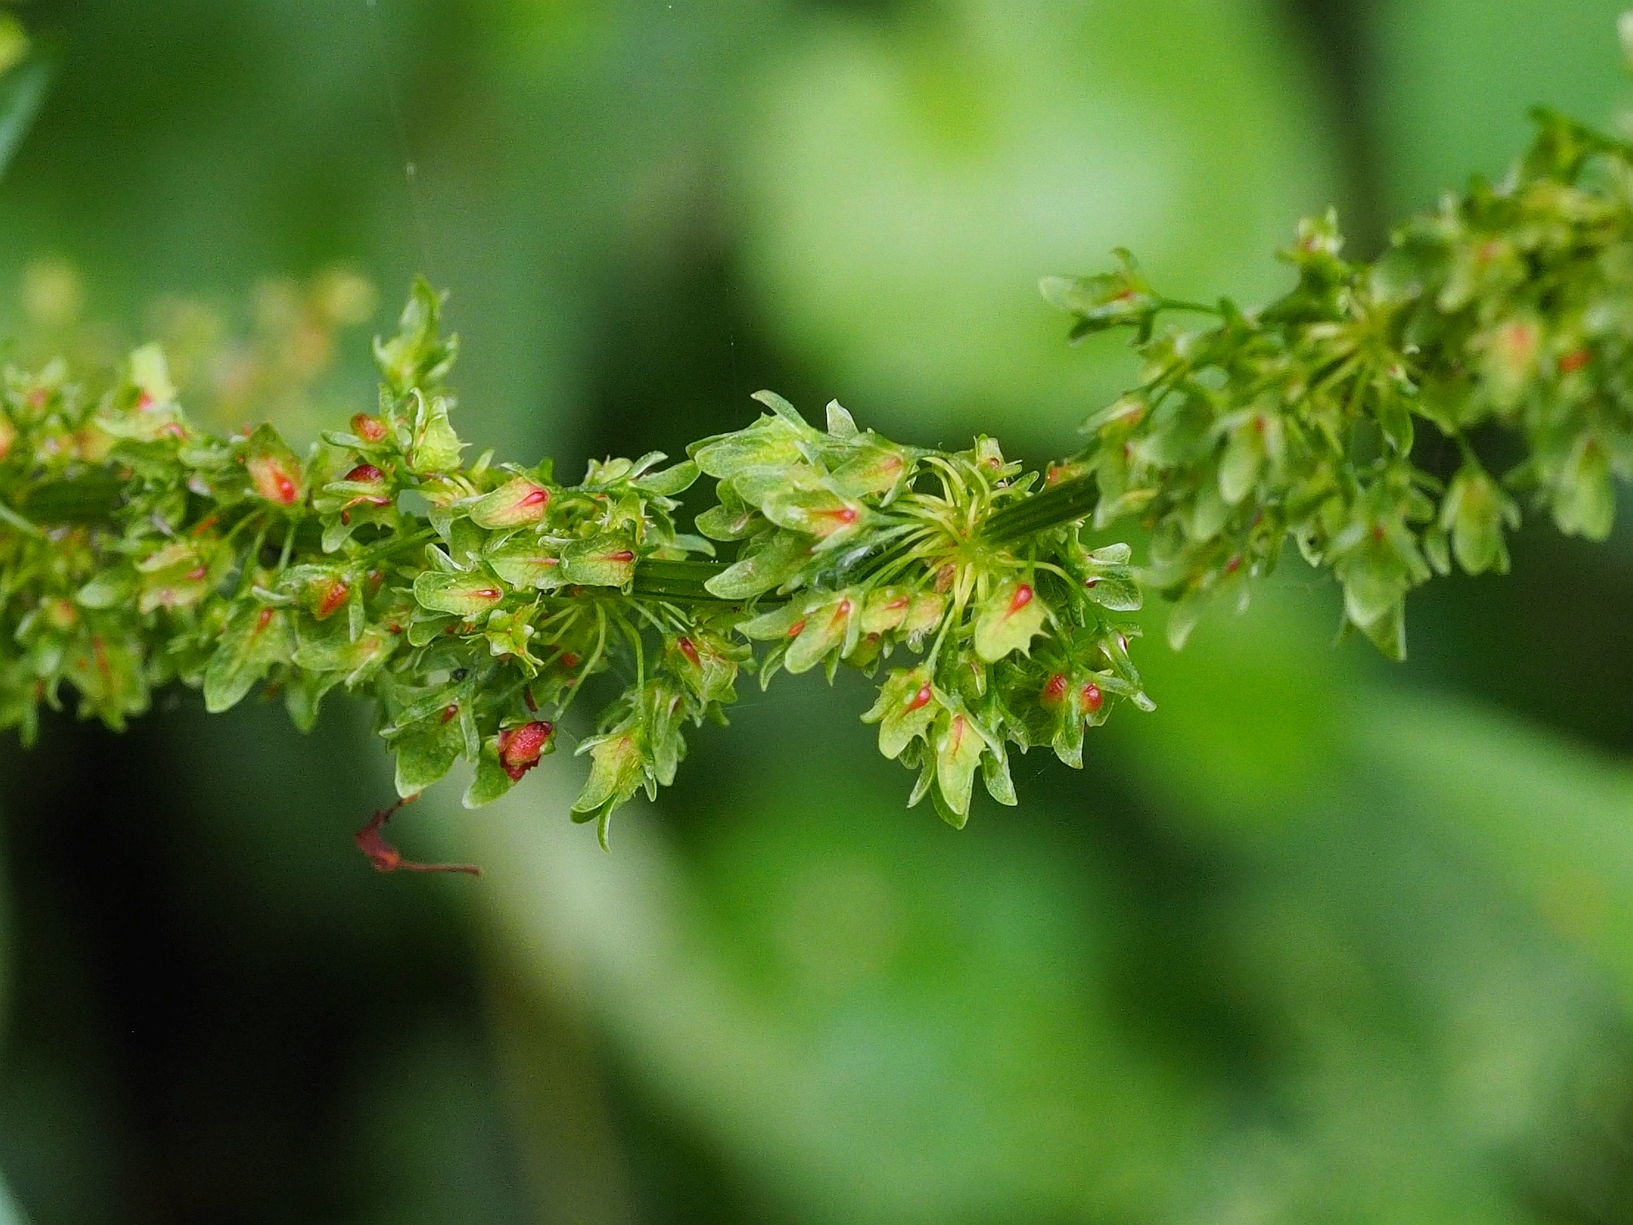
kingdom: Plantae
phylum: Tracheophyta
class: Magnoliopsida
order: Caryophyllales
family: Polygonaceae
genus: Rumex
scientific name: Rumex obtusifolius
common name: Bitter dock
